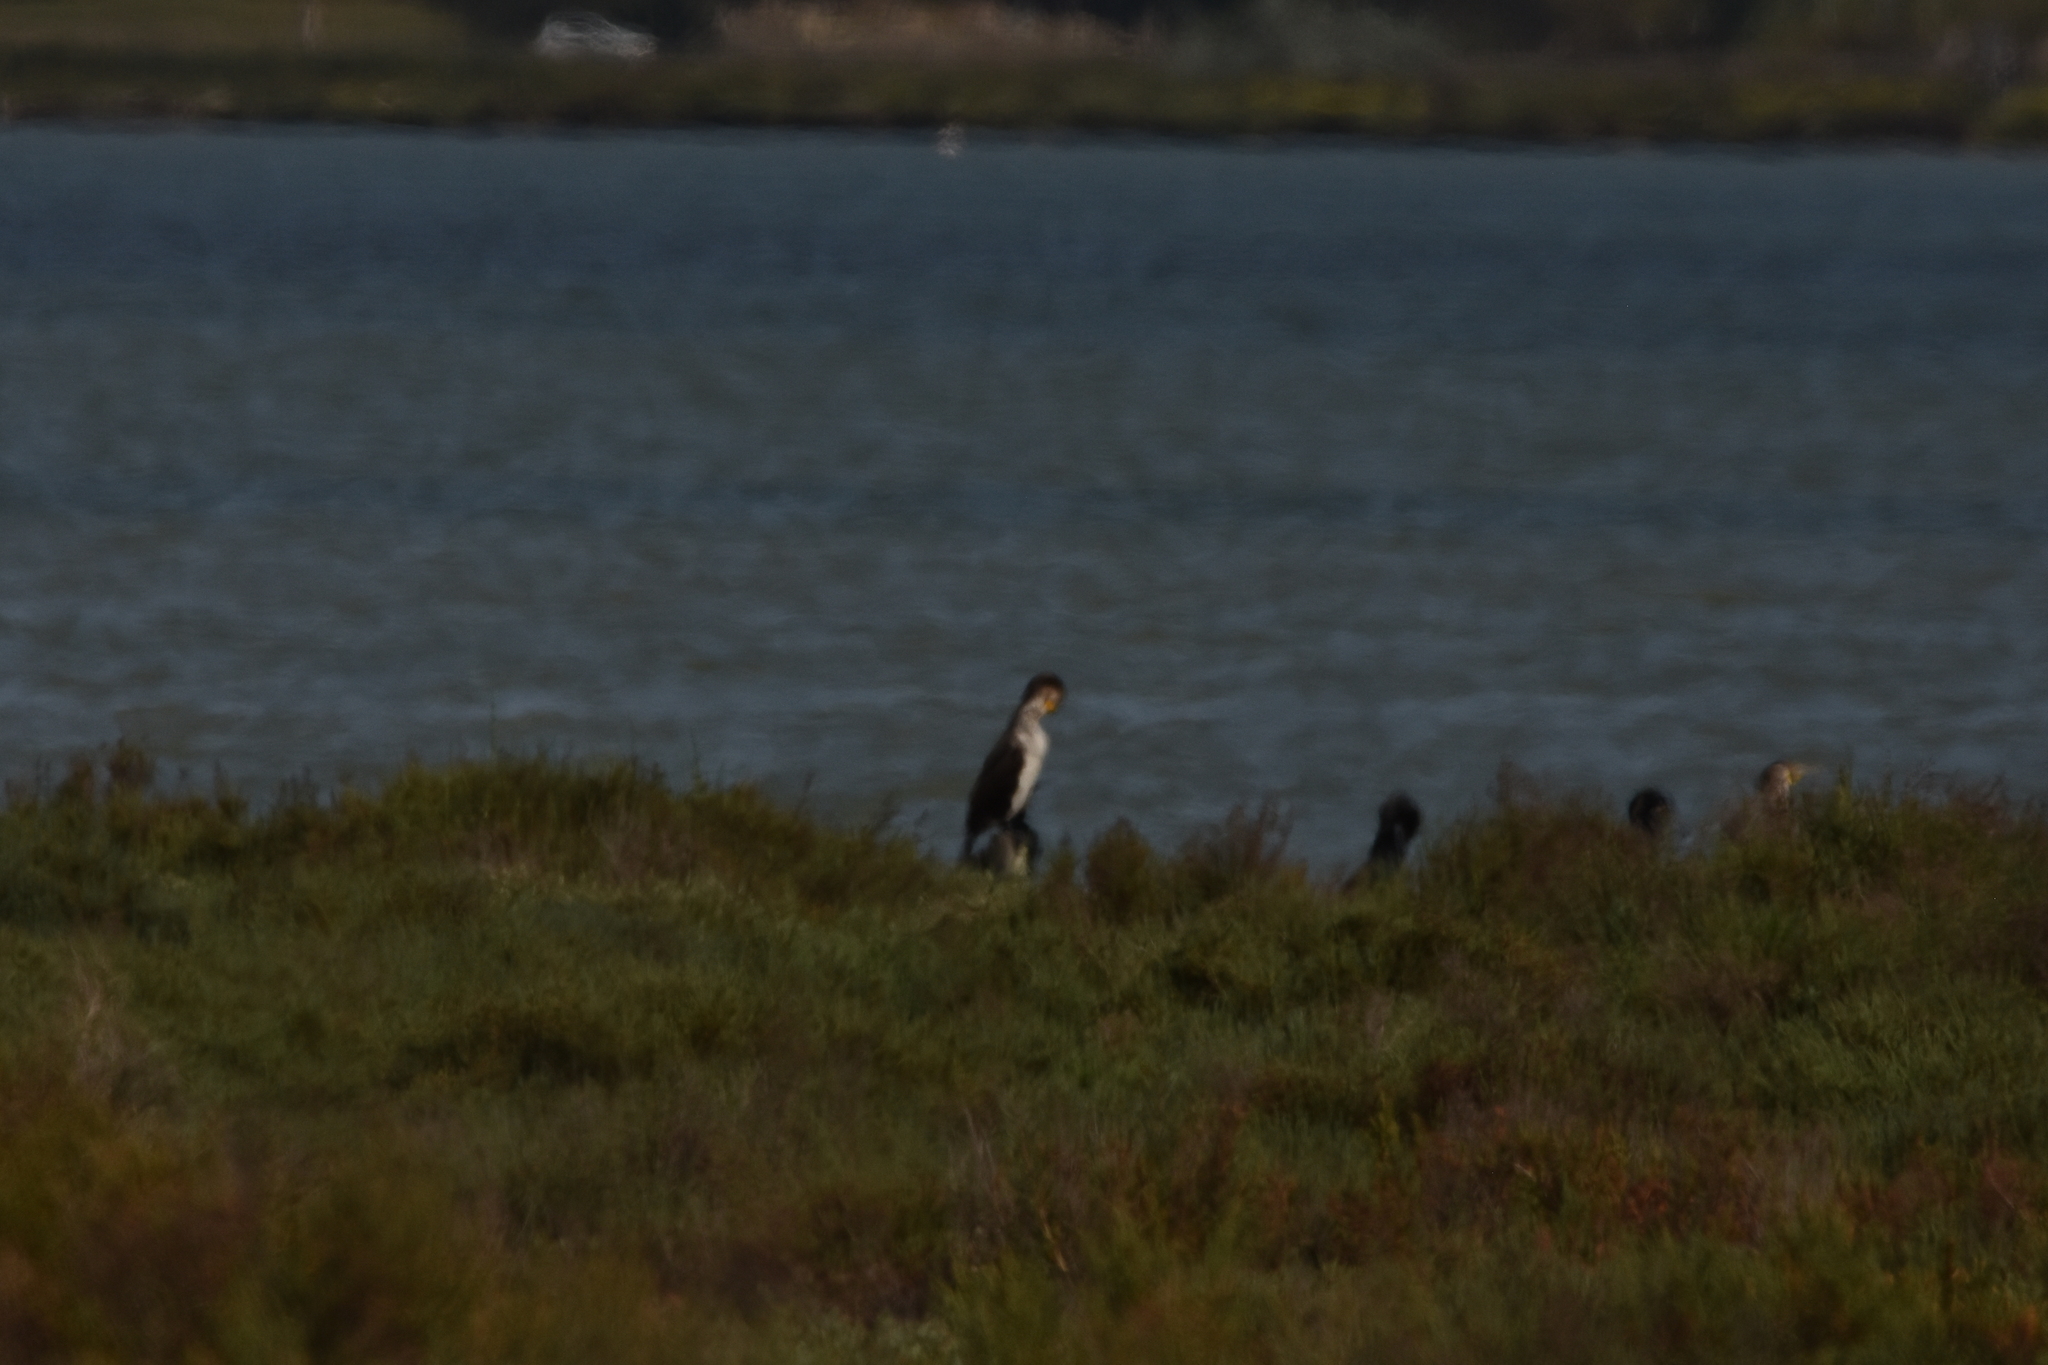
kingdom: Animalia
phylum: Chordata
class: Aves
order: Suliformes
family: Phalacrocoracidae
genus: Phalacrocorax
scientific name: Phalacrocorax carbo
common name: Great cormorant
